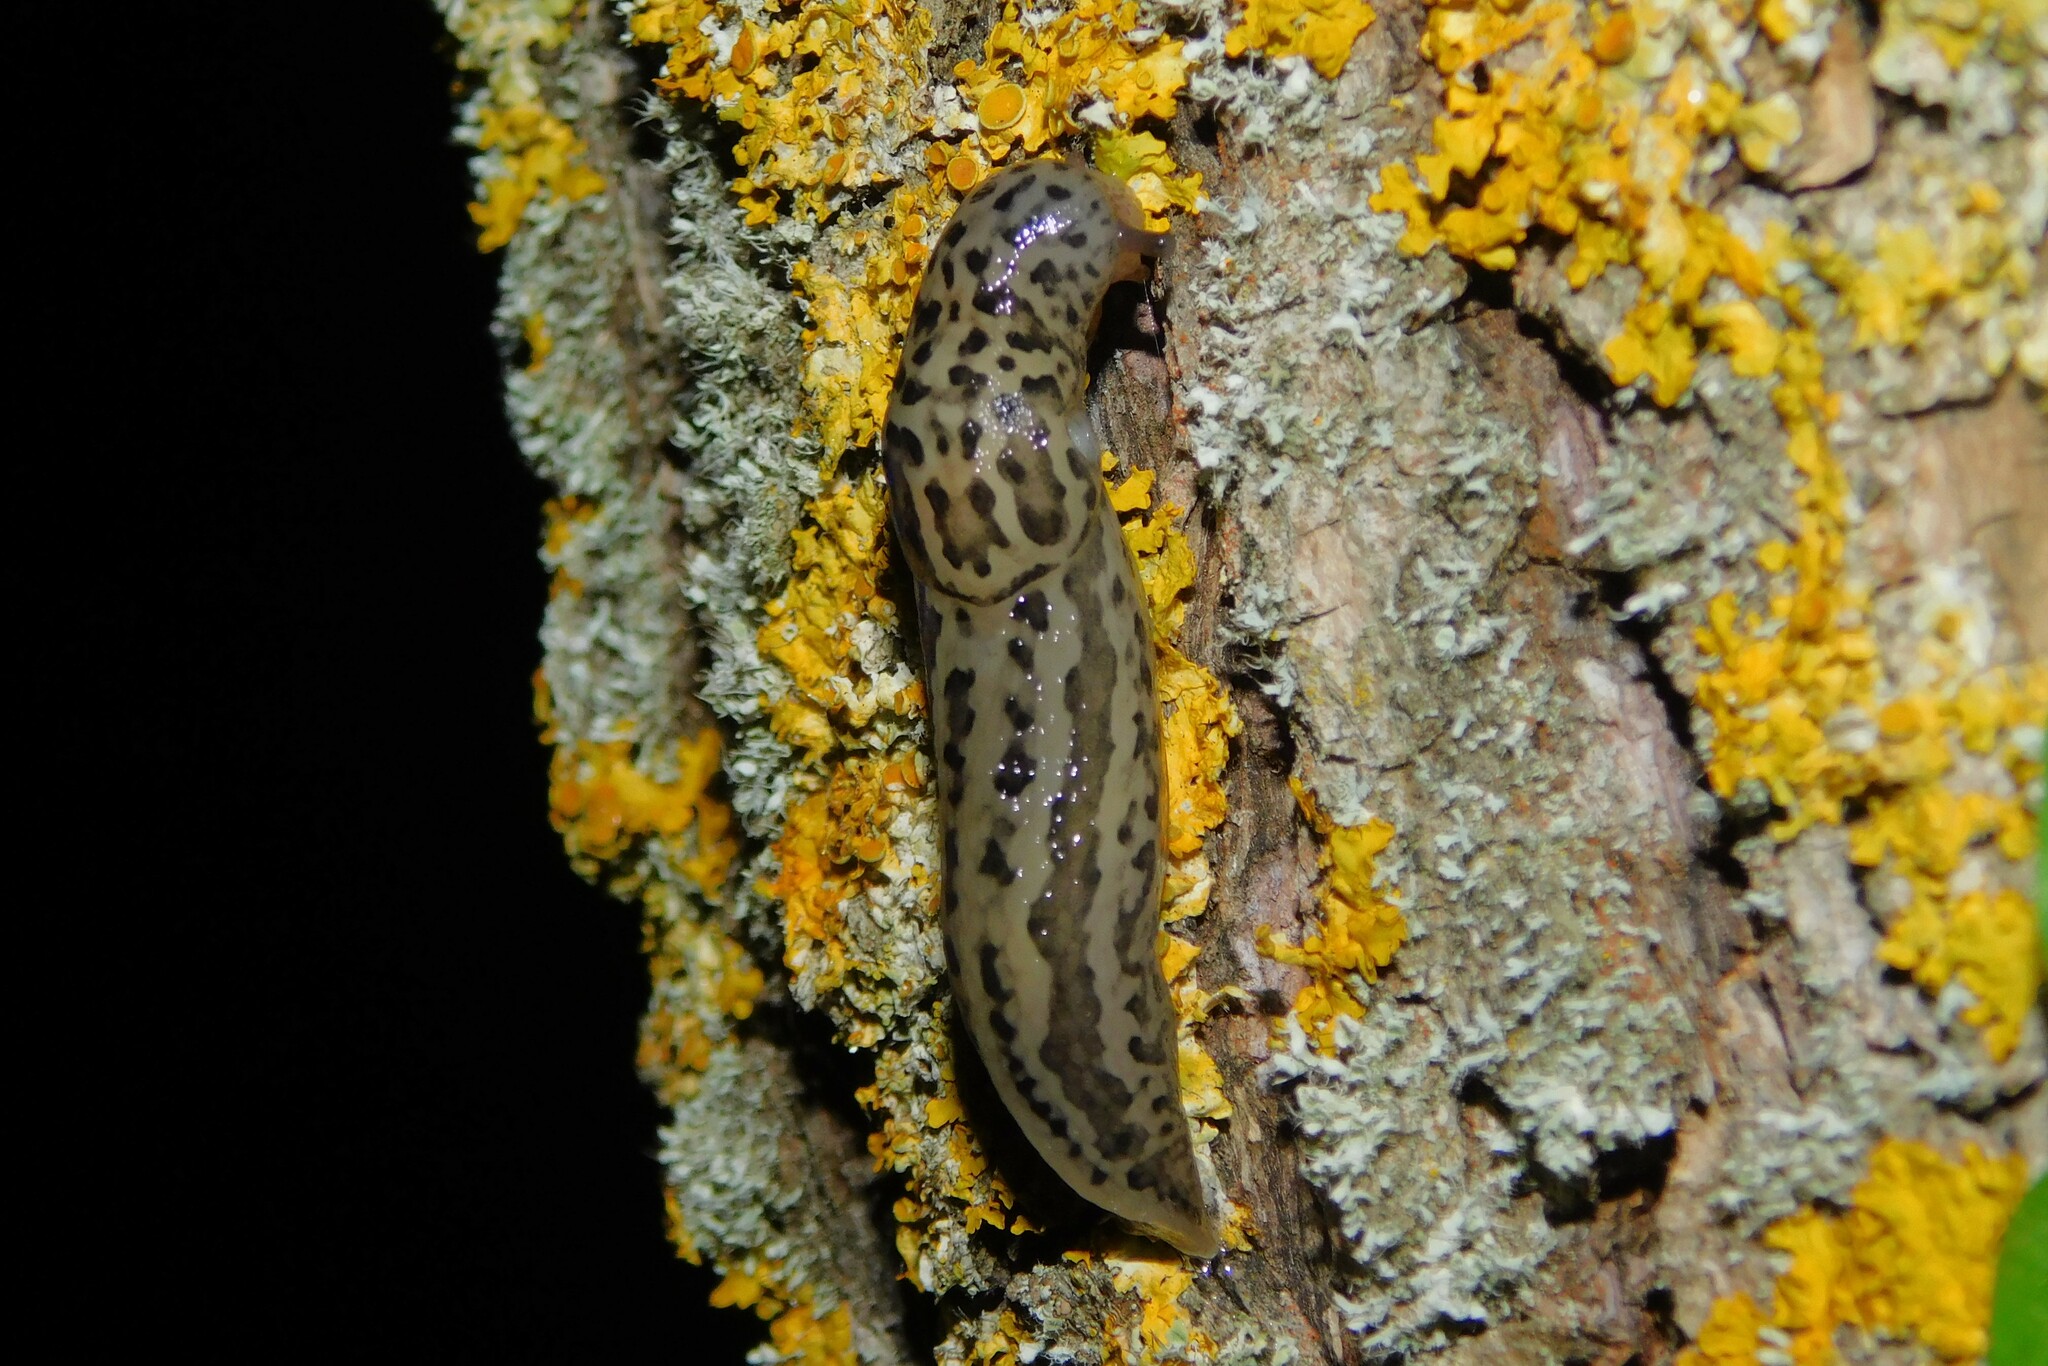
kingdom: Animalia
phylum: Mollusca
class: Gastropoda
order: Stylommatophora
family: Limacidae
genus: Limax
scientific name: Limax maximus
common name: Great grey slug
